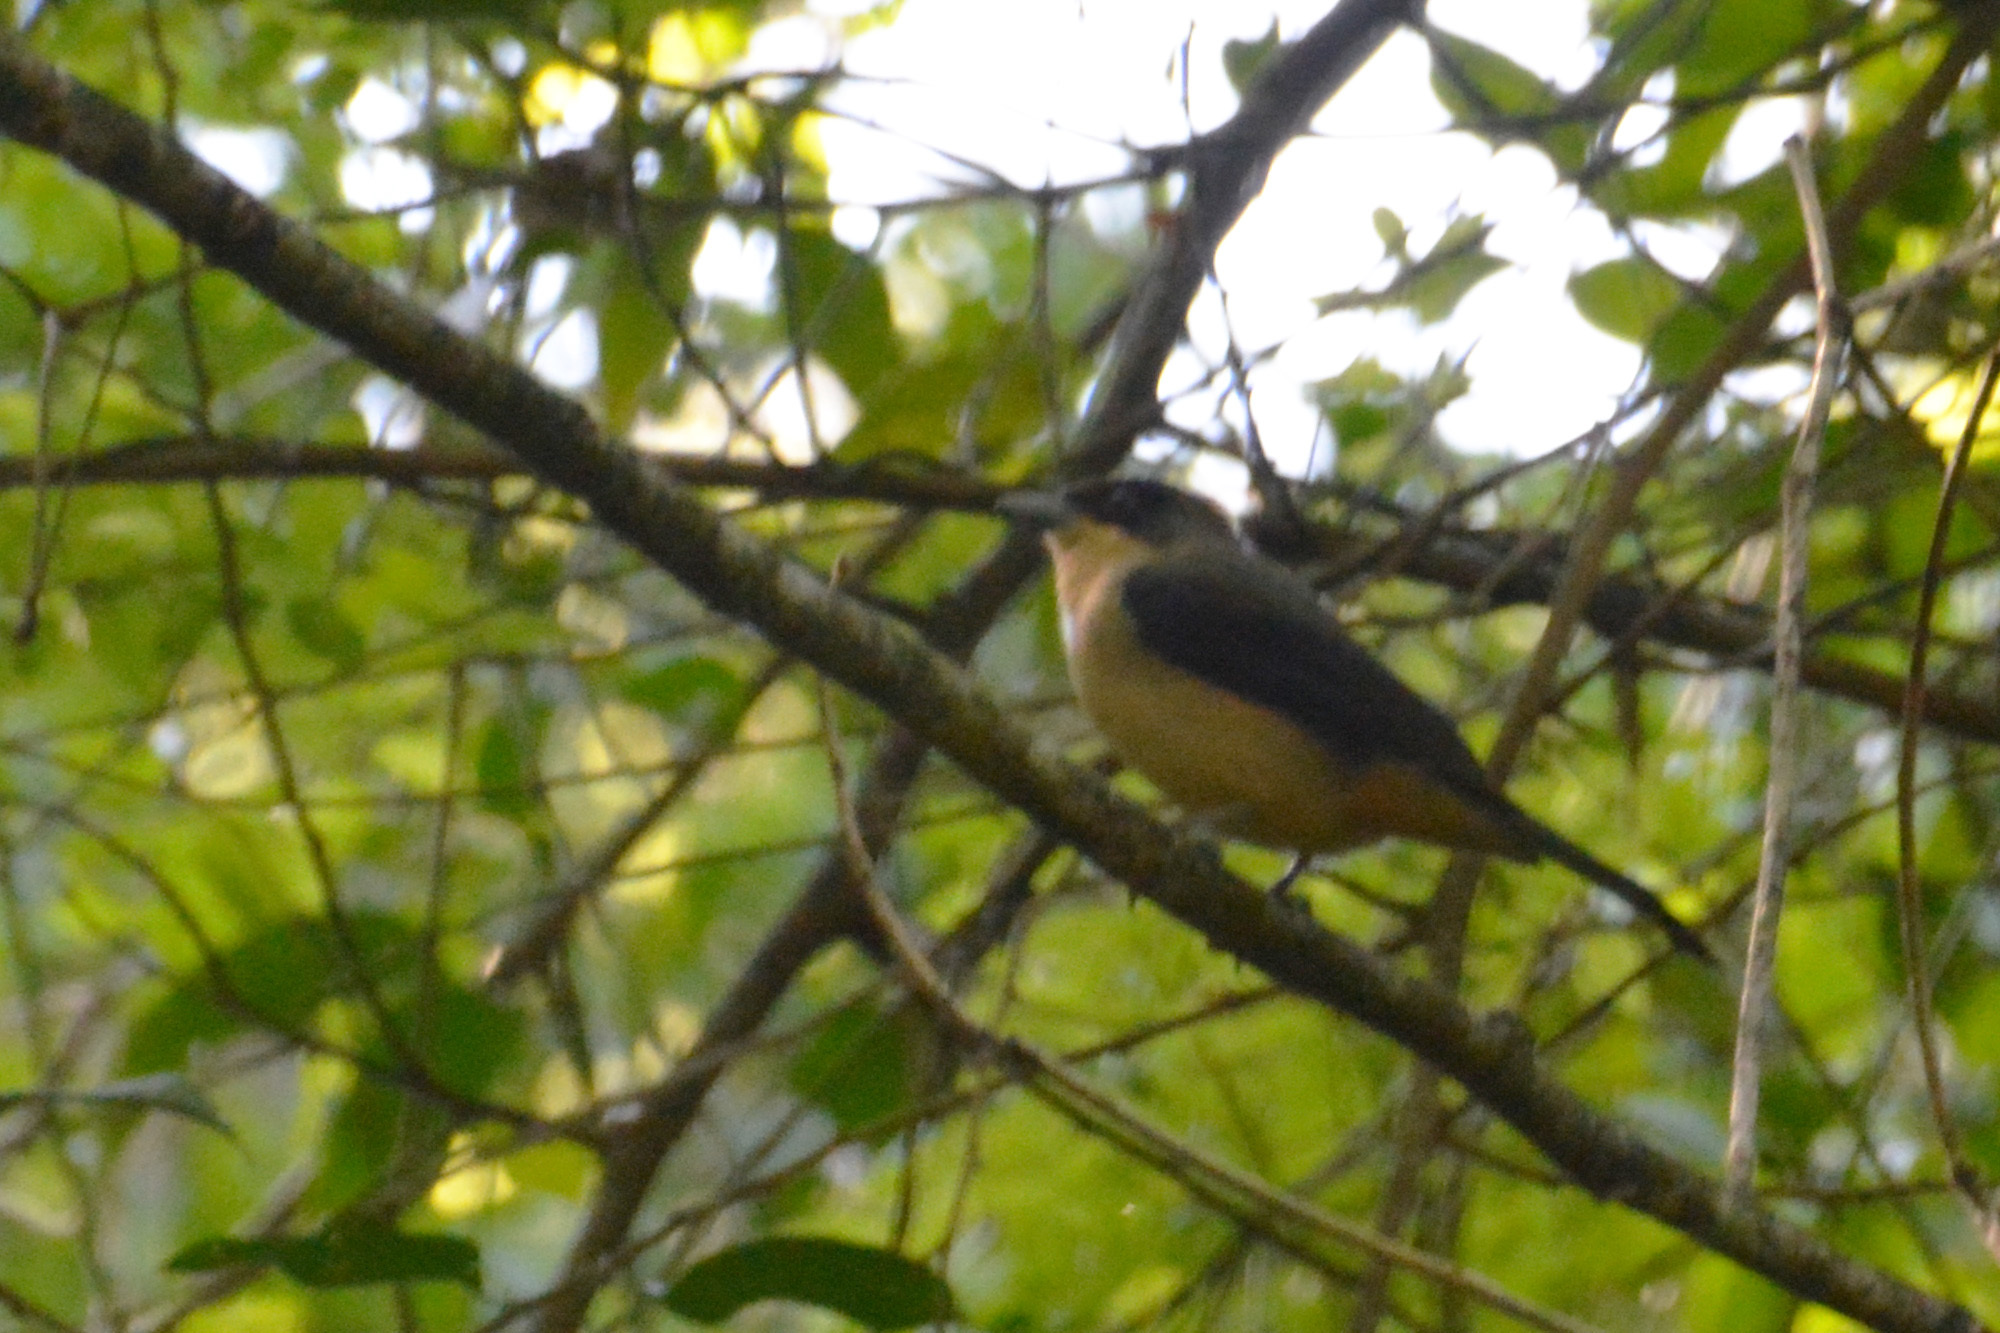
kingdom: Animalia
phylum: Chordata
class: Aves
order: Passeriformes
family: Thraupidae
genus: Trichothraupis
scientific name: Trichothraupis melanops
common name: Black-goggled tanager
